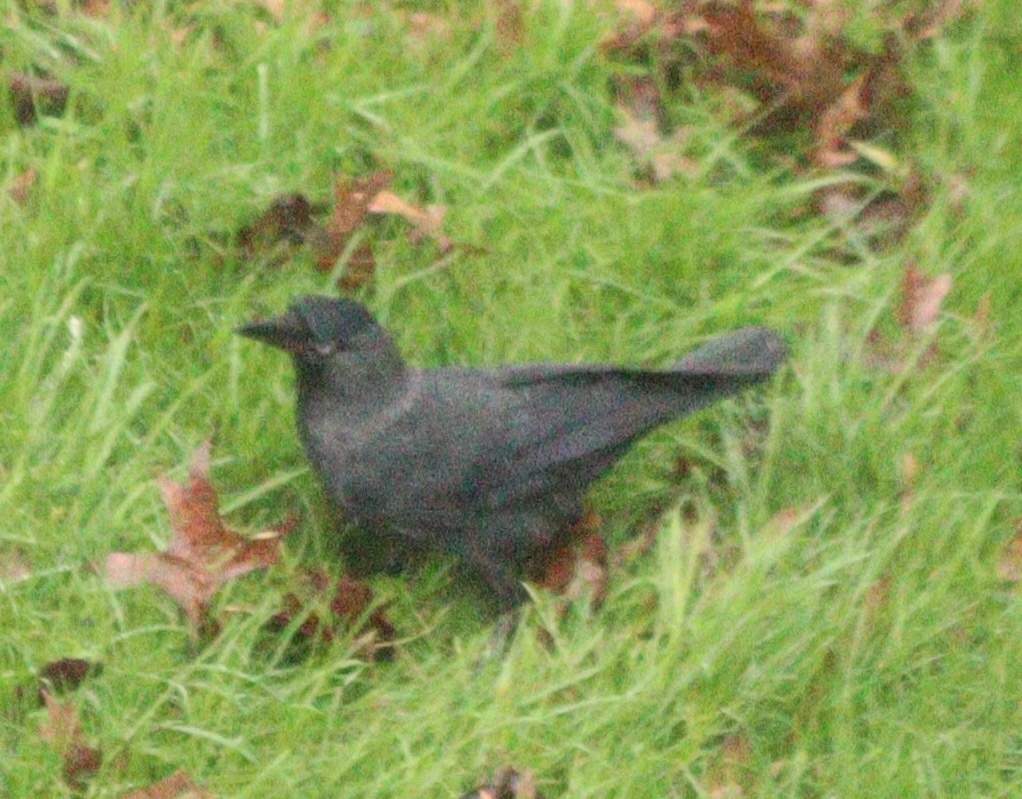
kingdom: Animalia
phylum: Chordata
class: Aves
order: Passeriformes
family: Corvidae
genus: Coloeus
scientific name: Coloeus monedula
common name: Western jackdaw
